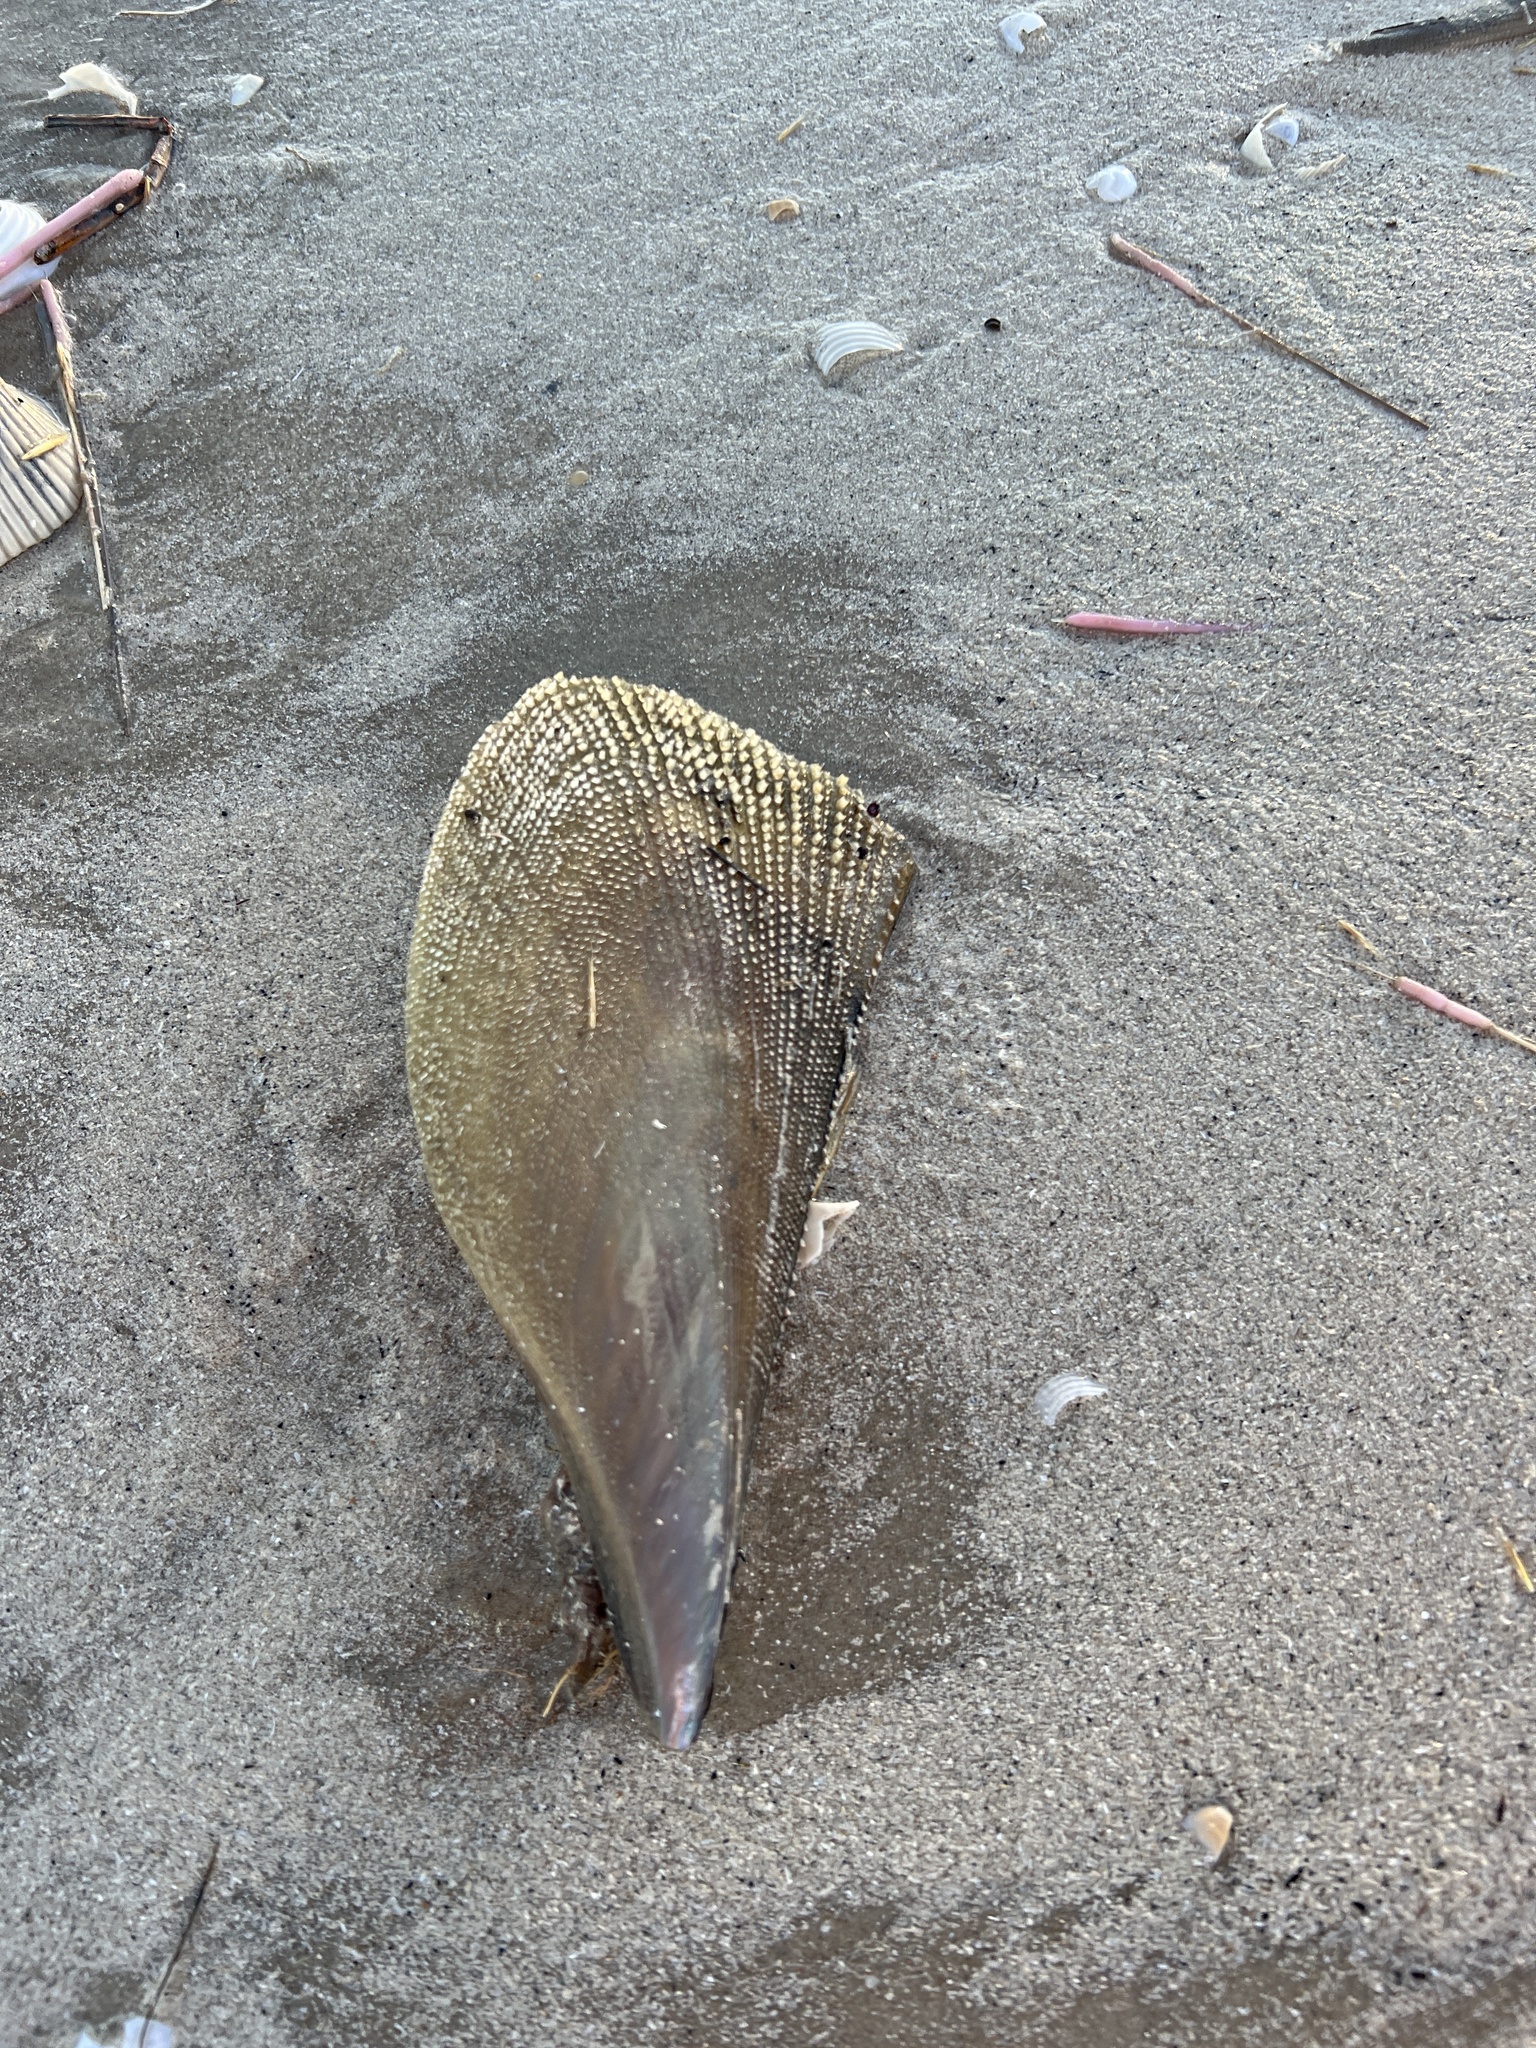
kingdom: Animalia
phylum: Mollusca
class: Bivalvia
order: Ostreida
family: Pinnidae
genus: Atrina
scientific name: Atrina serrata
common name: Saw-toothed penshell
